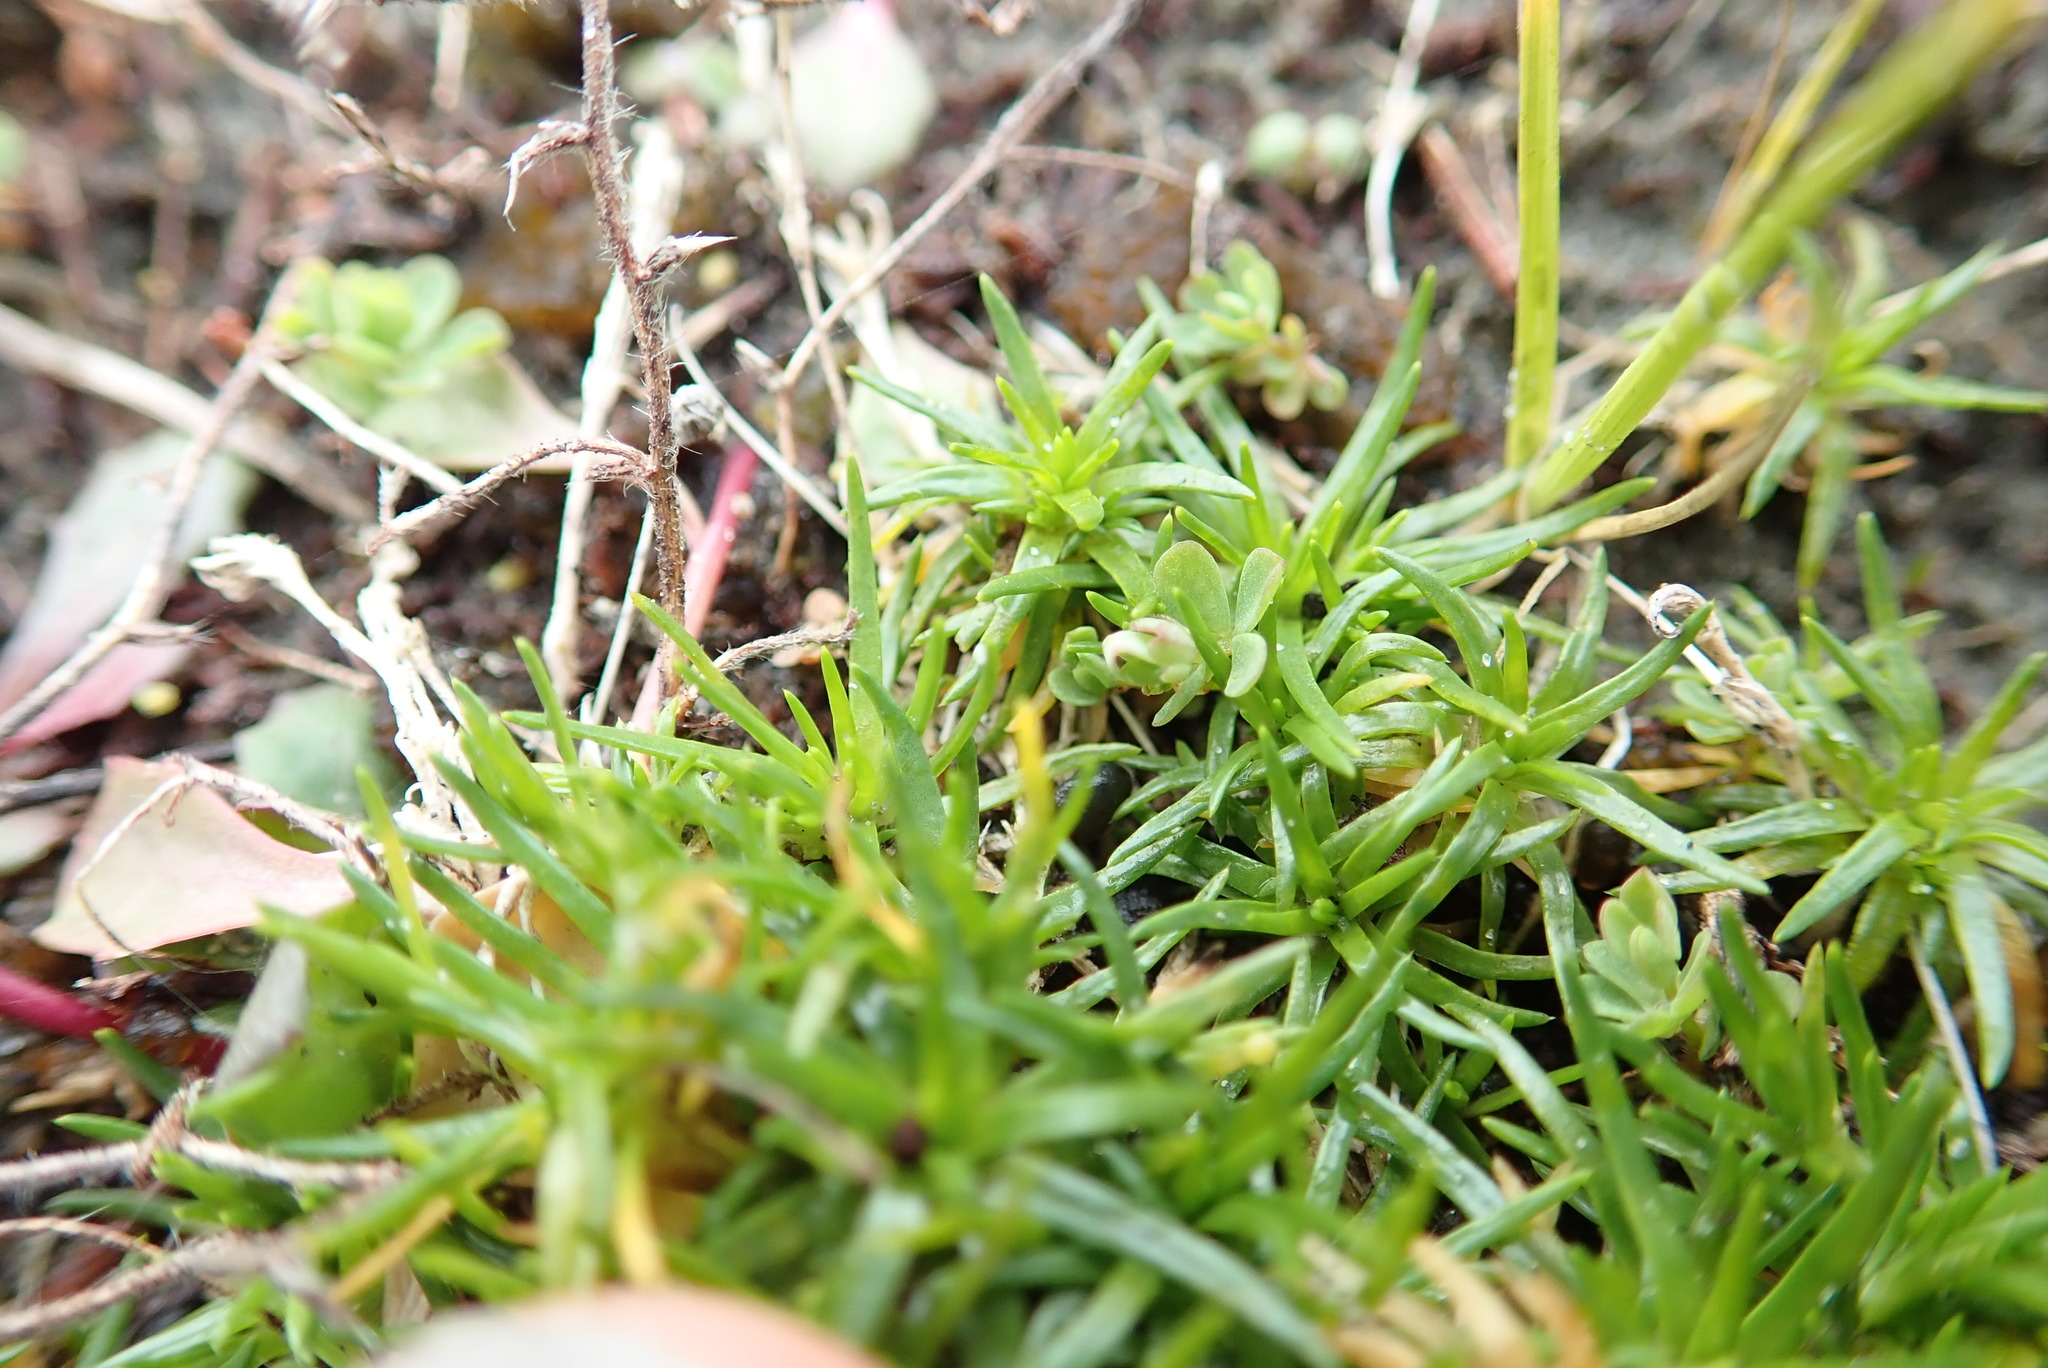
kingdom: Plantae
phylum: Tracheophyta
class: Magnoliopsida
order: Caryophyllales
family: Caryophyllaceae
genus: Sagina
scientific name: Sagina procumbens
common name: Procumbent pearlwort
